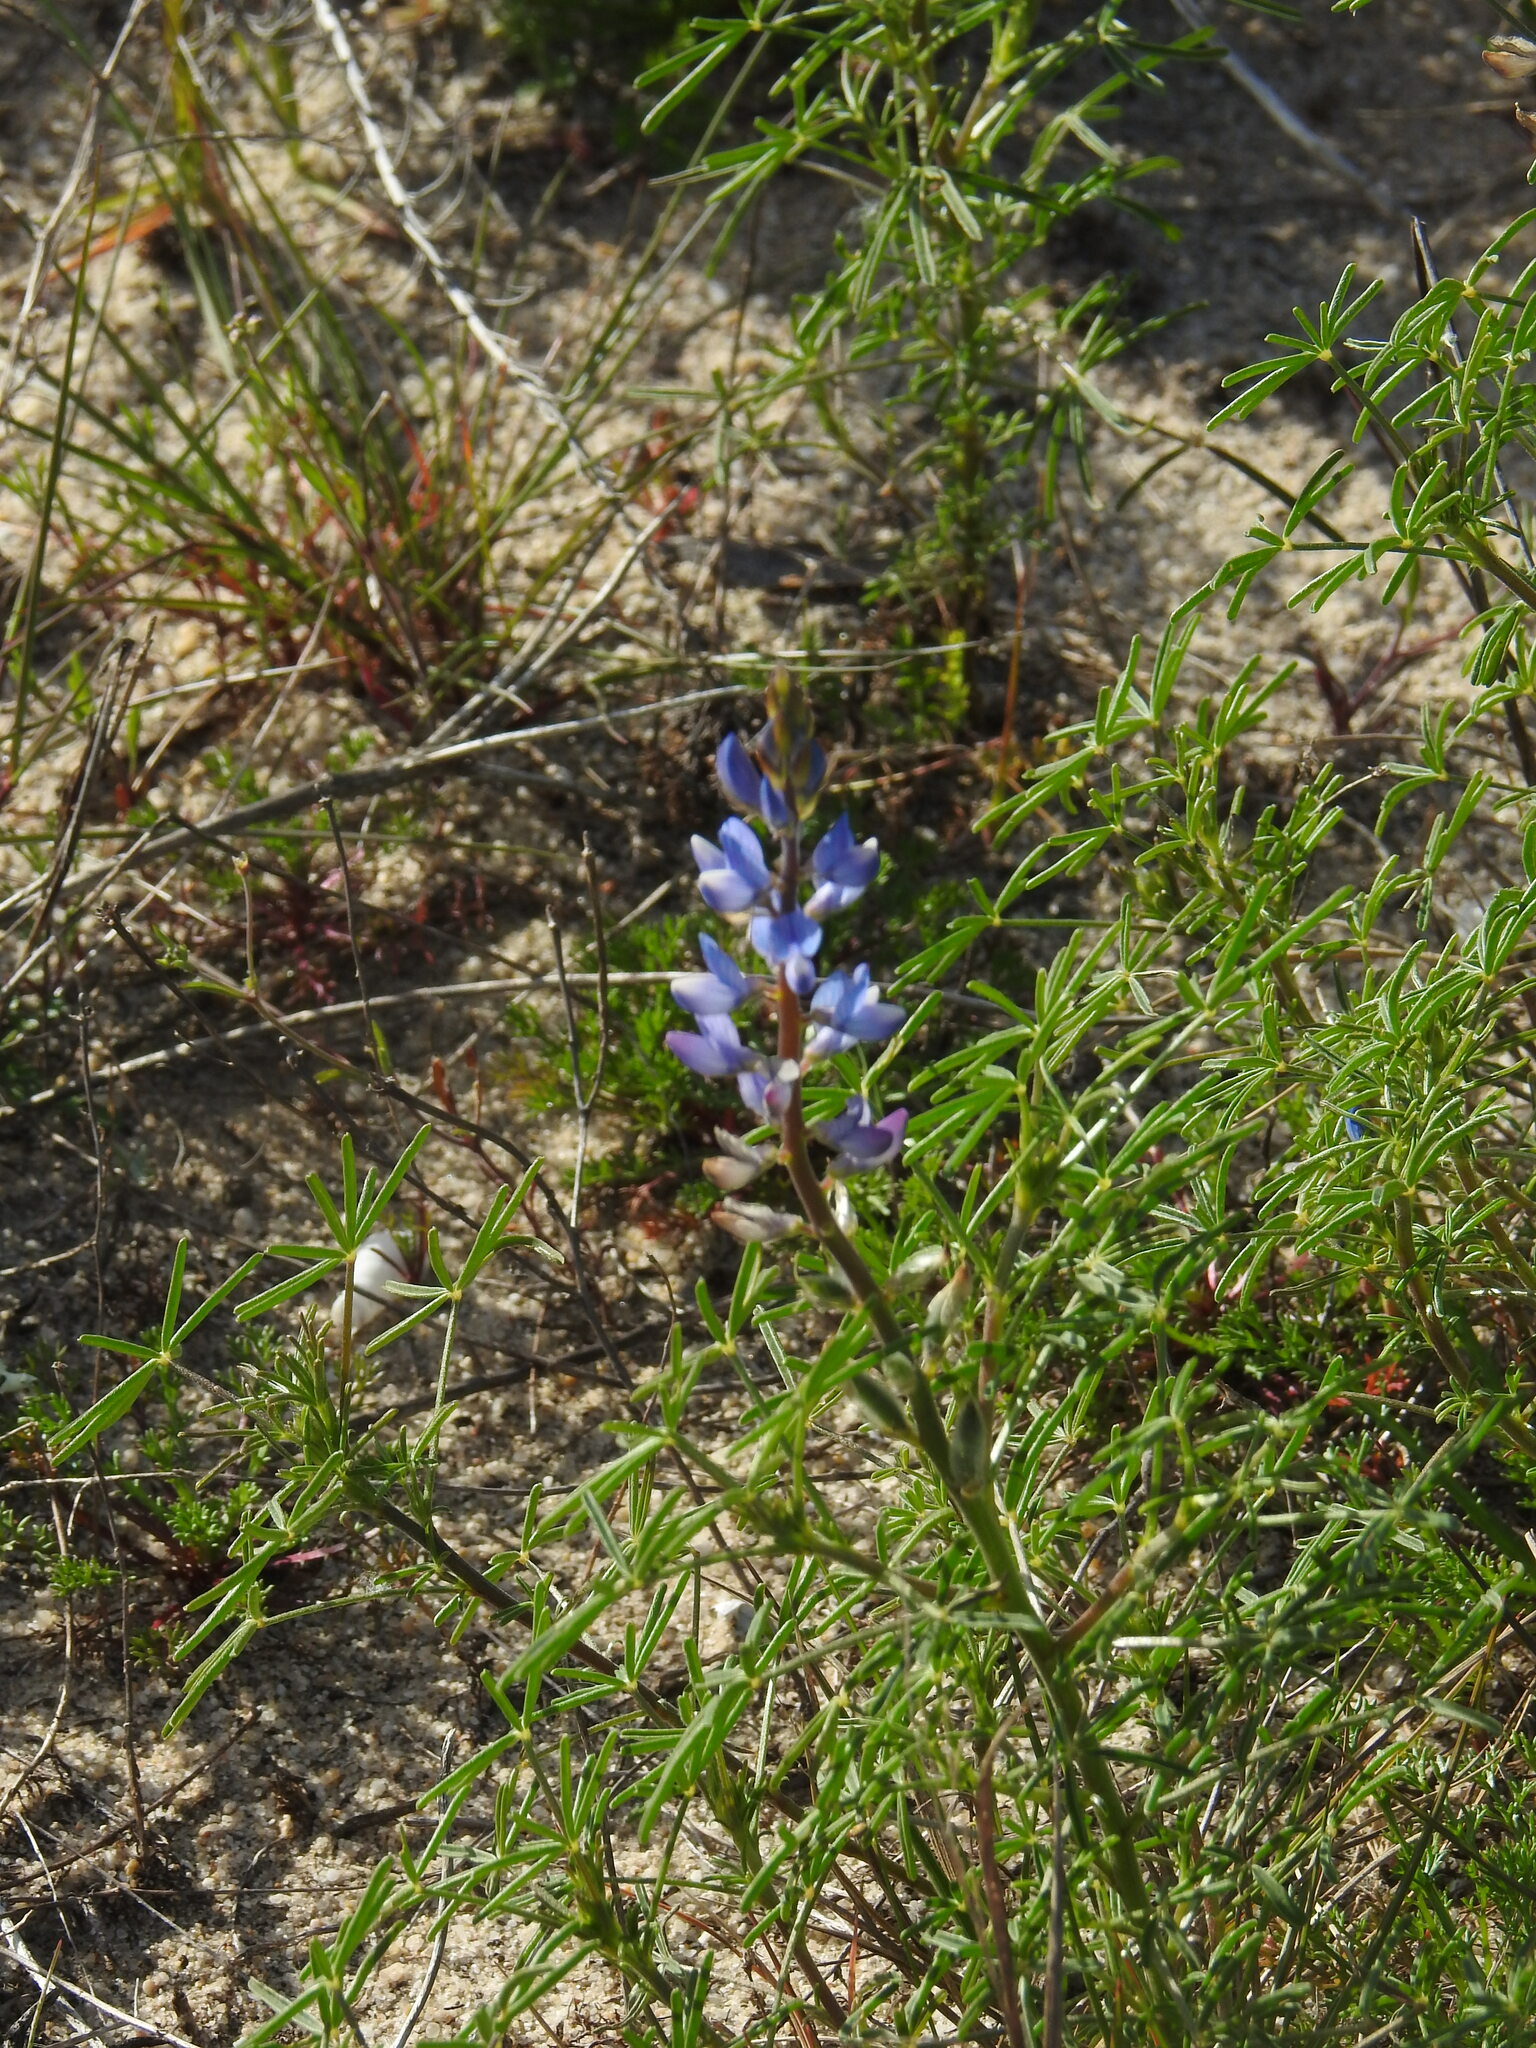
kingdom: Plantae
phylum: Tracheophyta
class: Magnoliopsida
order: Fabales
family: Fabaceae
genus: Lupinus
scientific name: Lupinus angustifolius
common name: Narrow-leaved lupin
